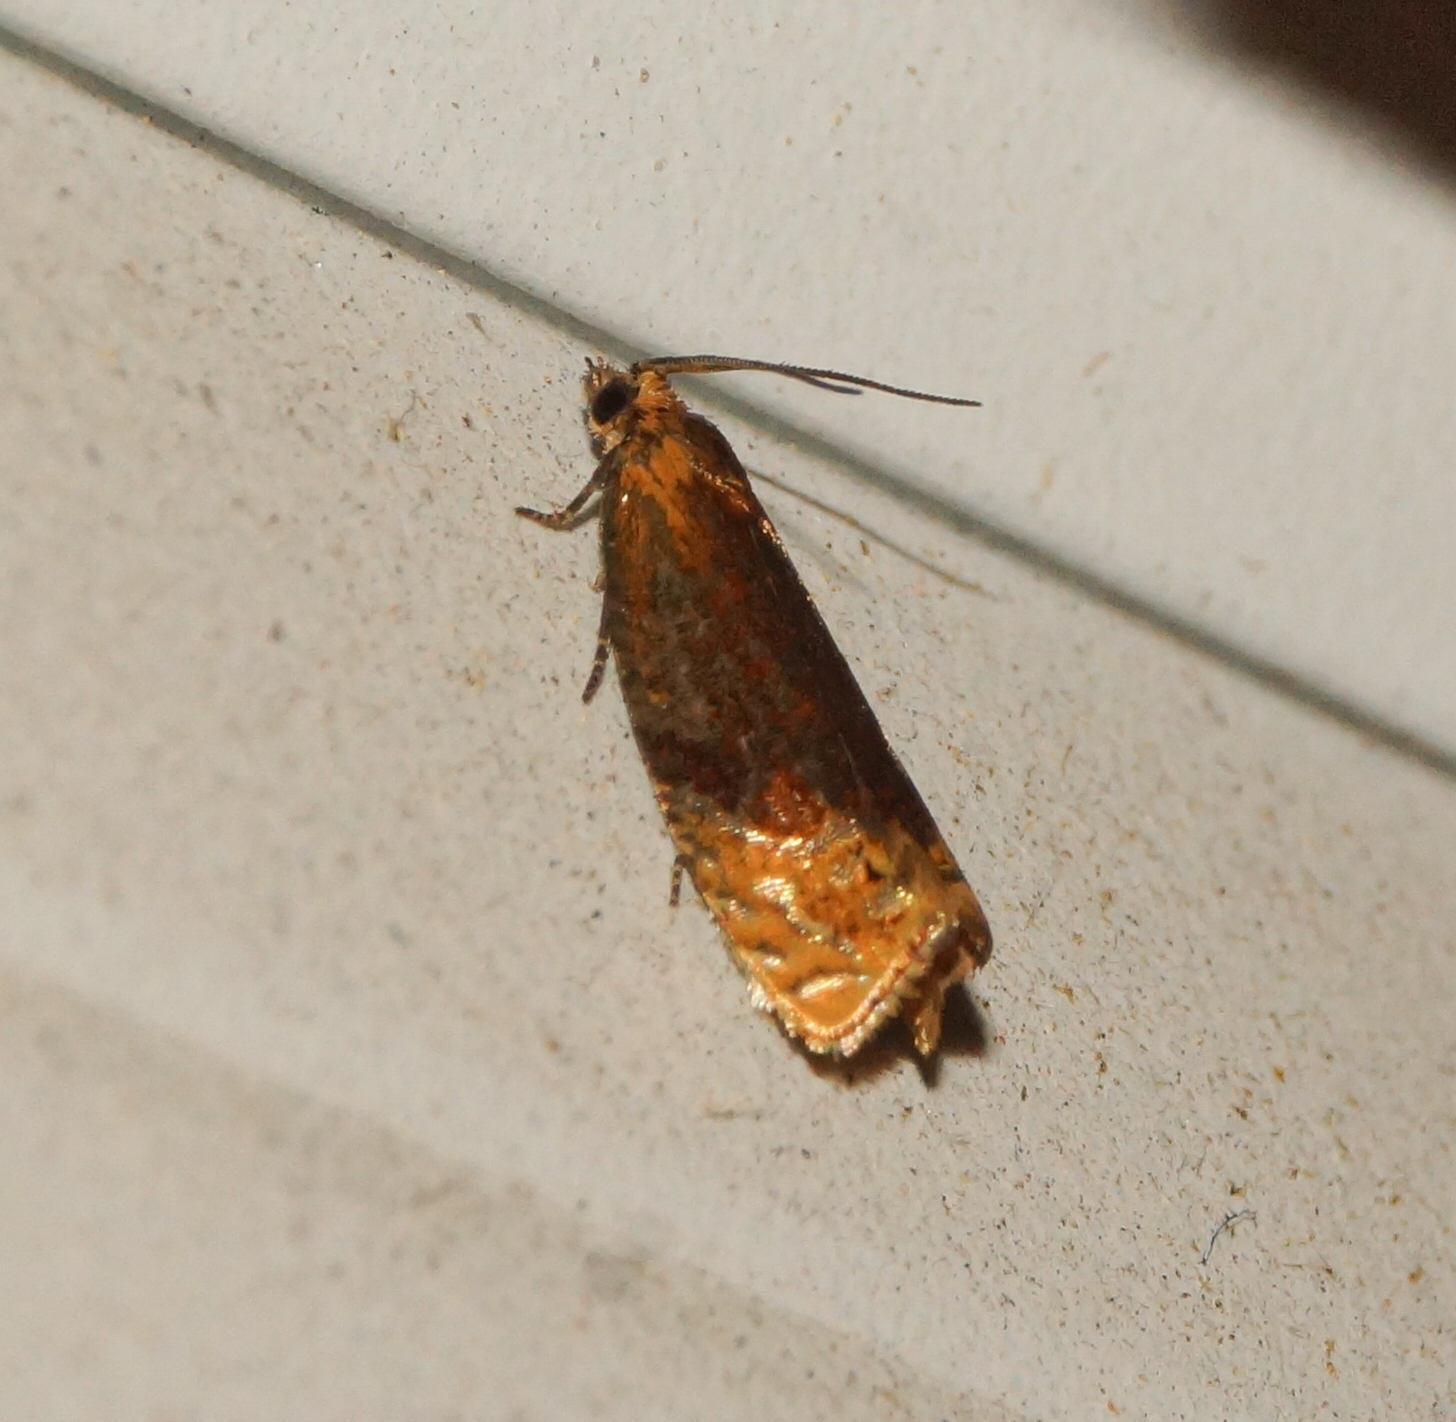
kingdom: Animalia
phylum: Arthropoda
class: Insecta
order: Lepidoptera
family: Tortricidae
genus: Eucosmomorpha
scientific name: Eucosmomorpha albersana
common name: Honeysuckle bell
